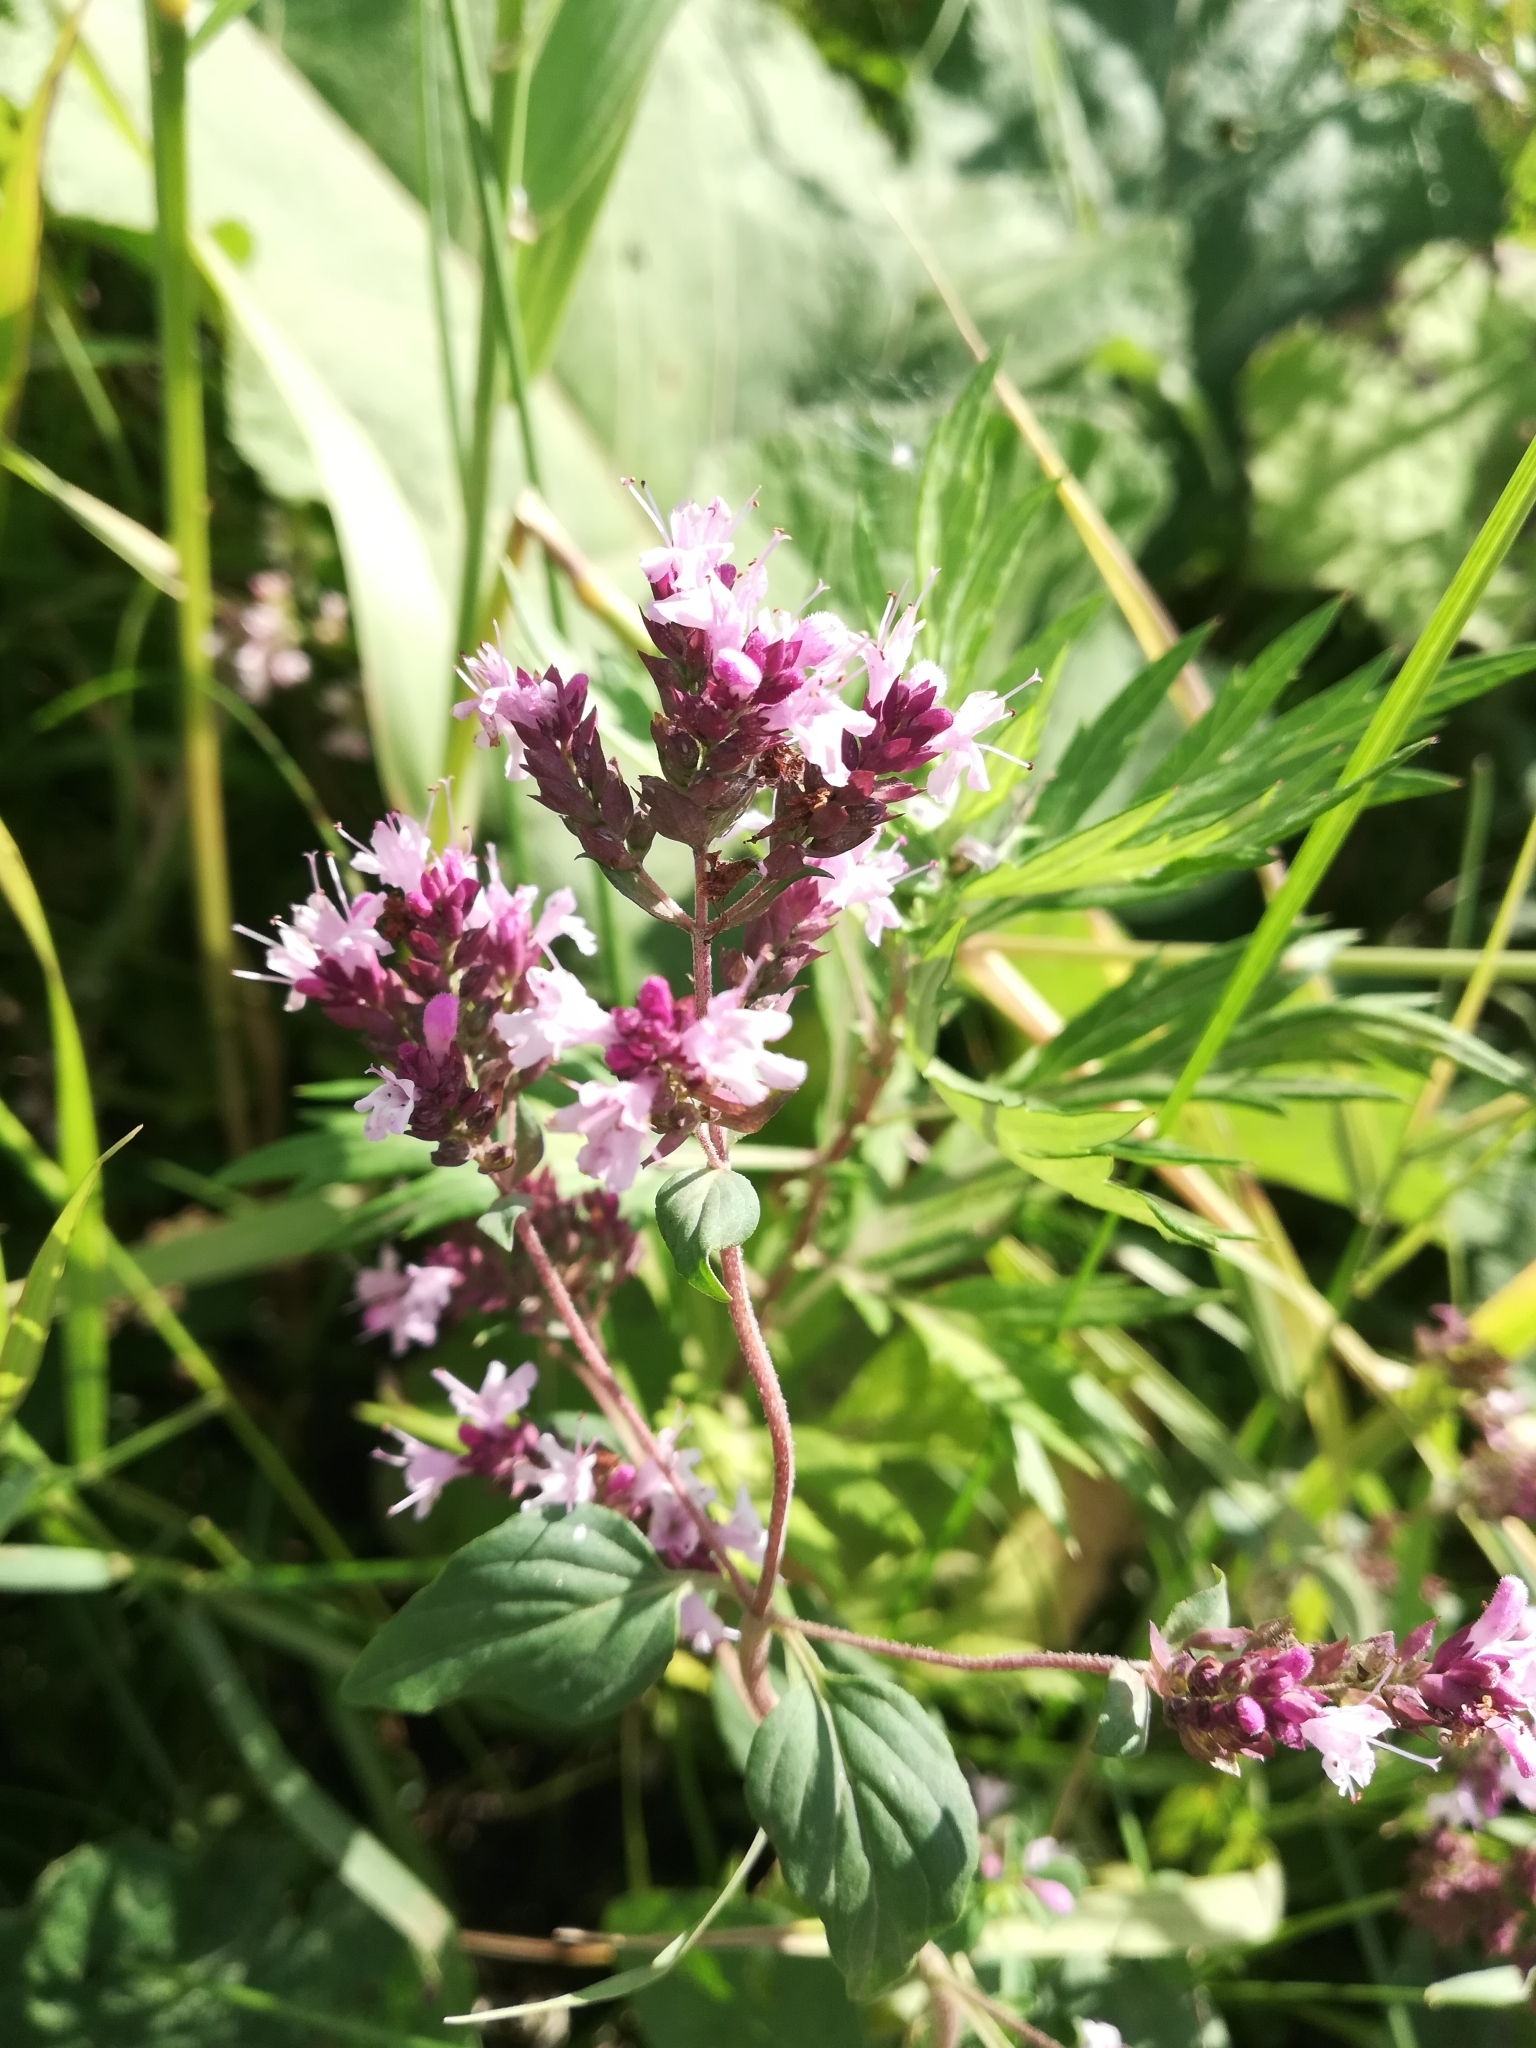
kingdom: Plantae
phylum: Tracheophyta
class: Magnoliopsida
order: Lamiales
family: Lamiaceae
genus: Origanum
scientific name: Origanum vulgare
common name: Wild marjoram
